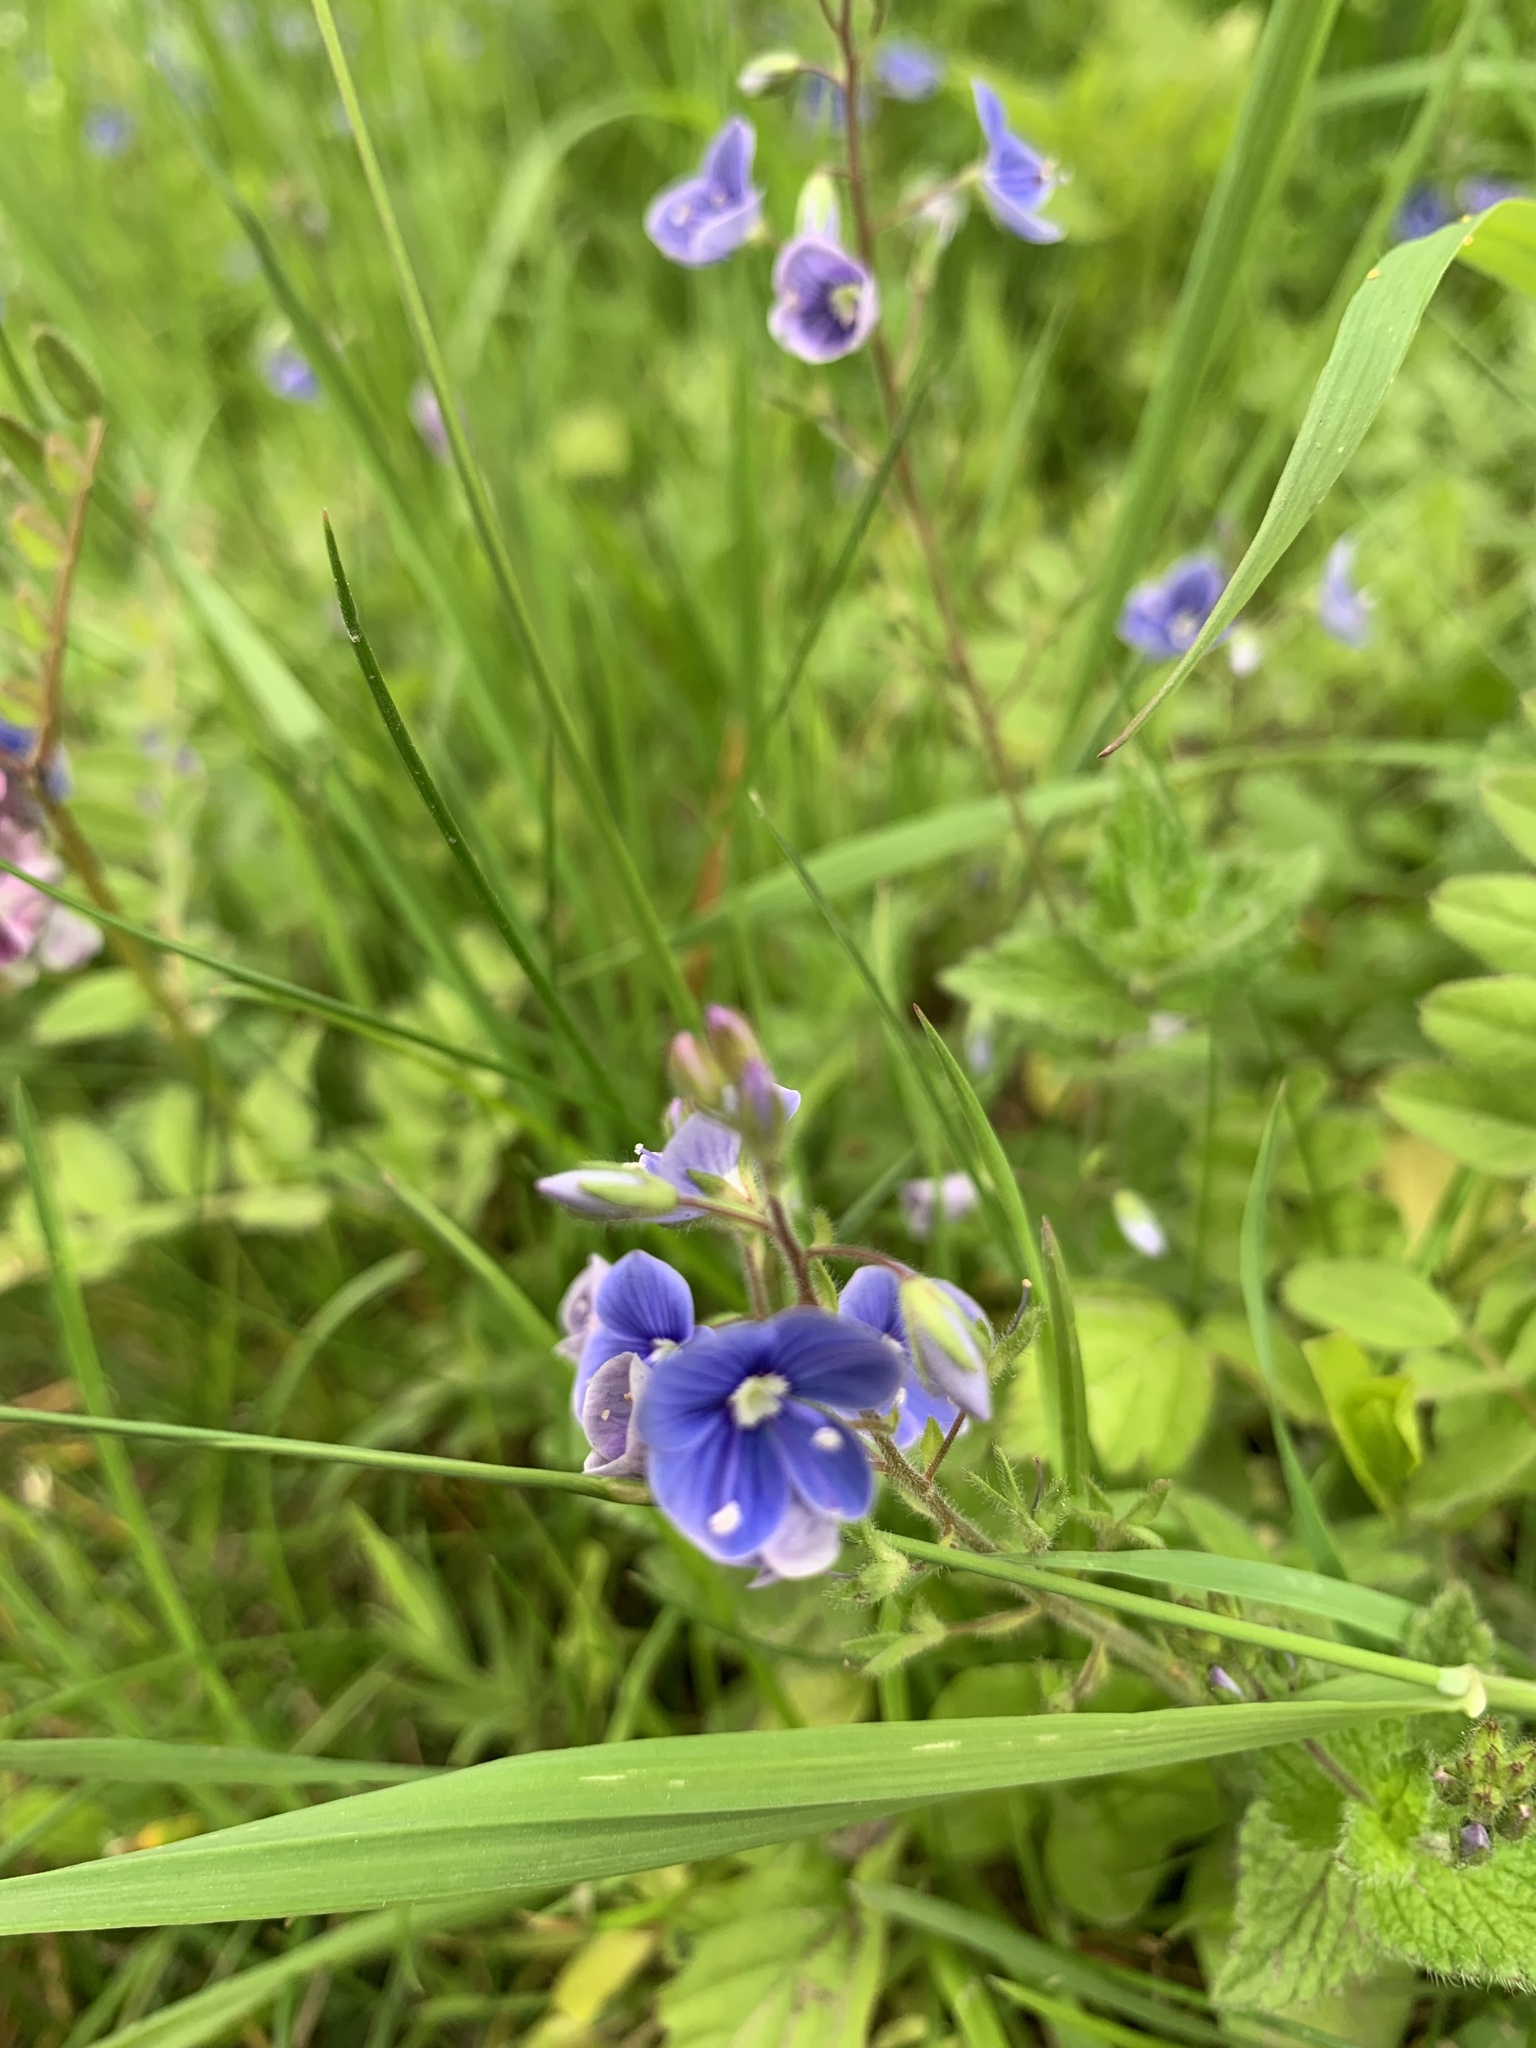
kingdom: Plantae
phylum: Tracheophyta
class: Magnoliopsida
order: Lamiales
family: Plantaginaceae
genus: Veronica
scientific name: Veronica chamaedrys
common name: Germander speedwell
